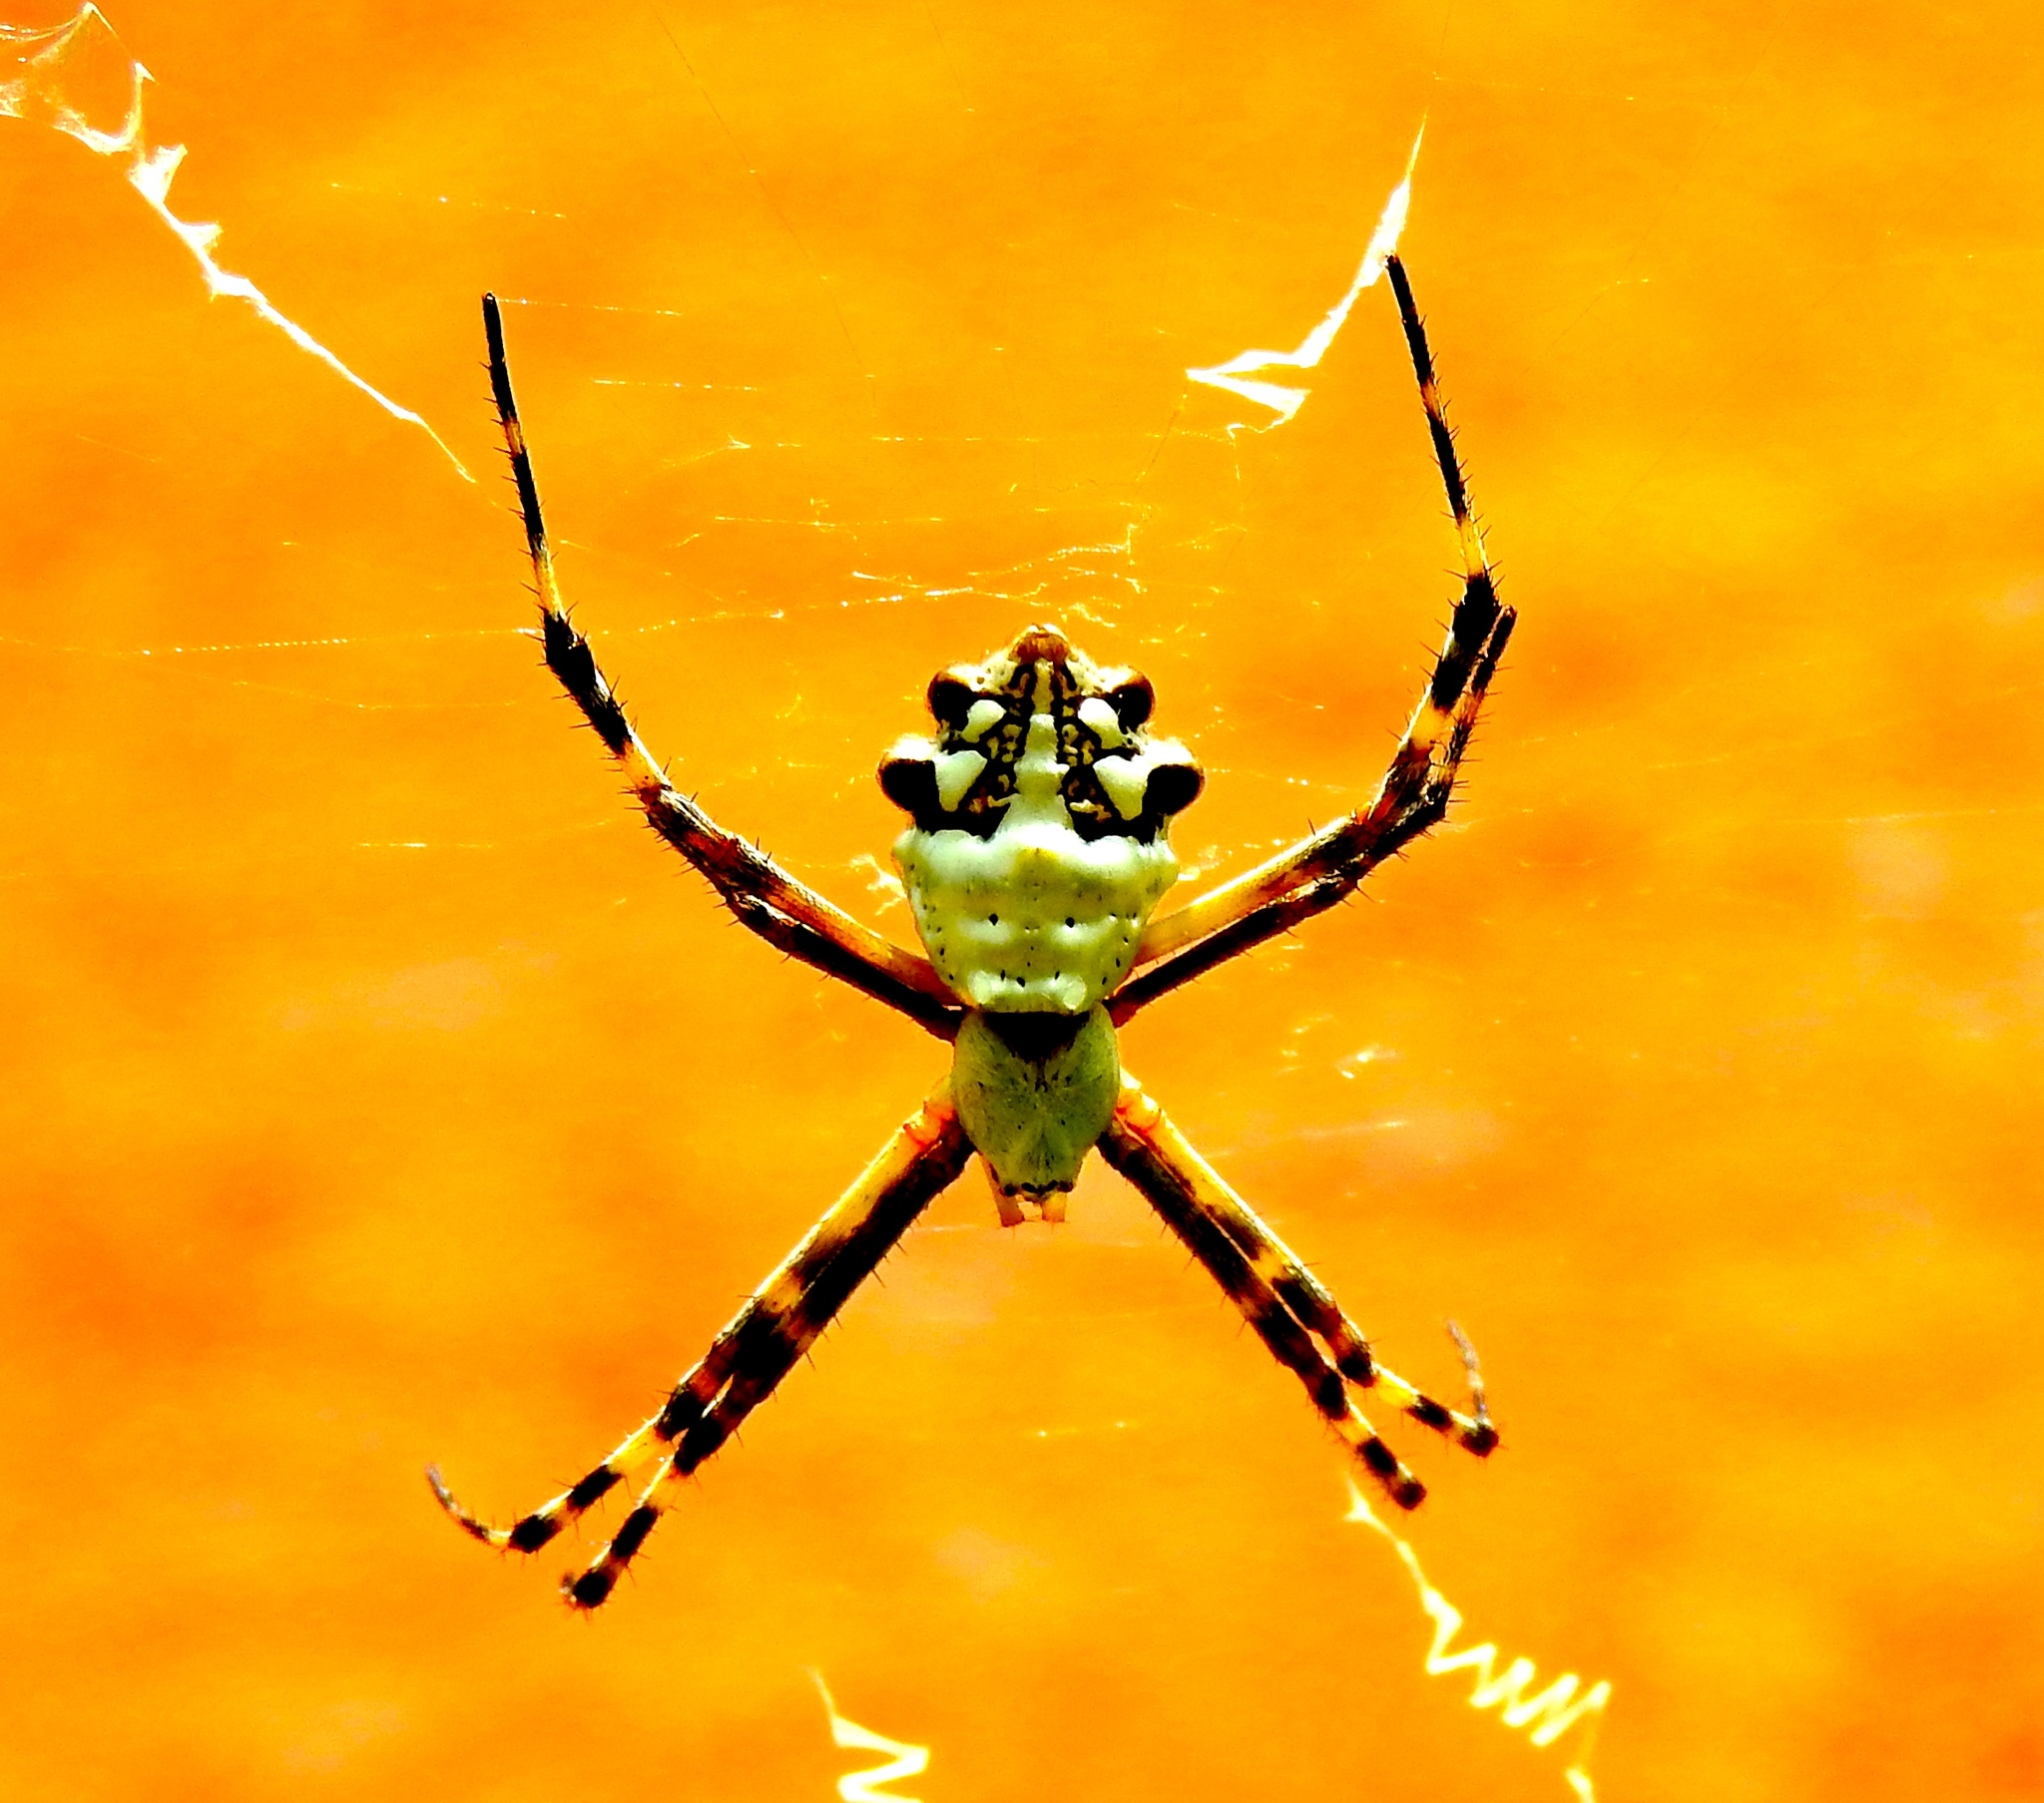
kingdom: Animalia
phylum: Arthropoda
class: Arachnida
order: Araneae
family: Araneidae
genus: Argiope
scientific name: Argiope argentata
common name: Orb weavers
